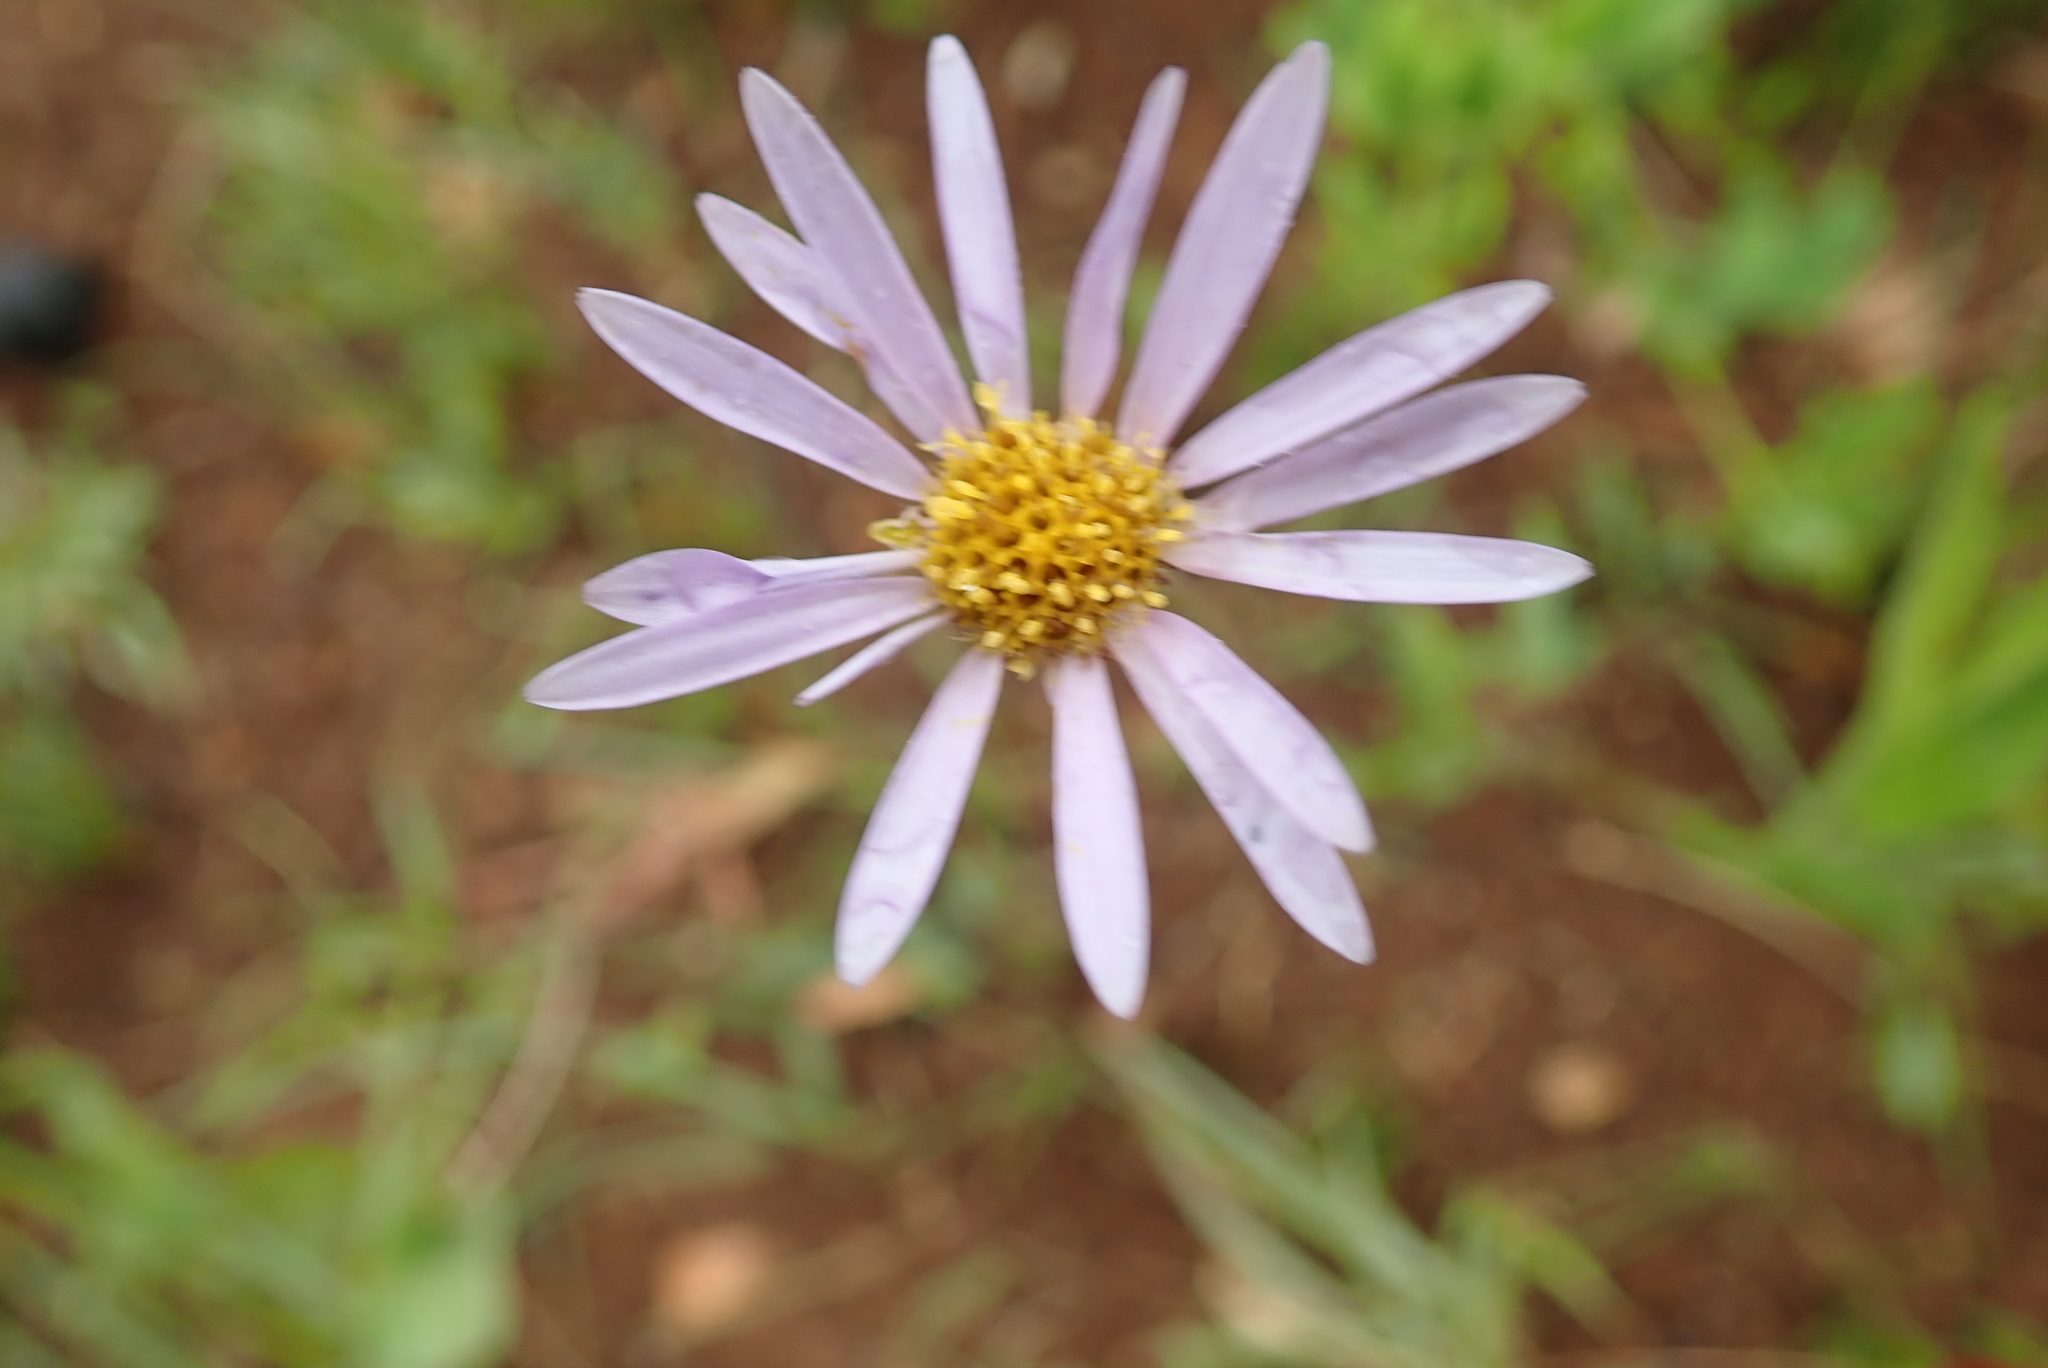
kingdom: Plantae
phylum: Tracheophyta
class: Magnoliopsida
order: Asterales
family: Asteraceae
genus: Afroaster
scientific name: Afroaster hispidus
